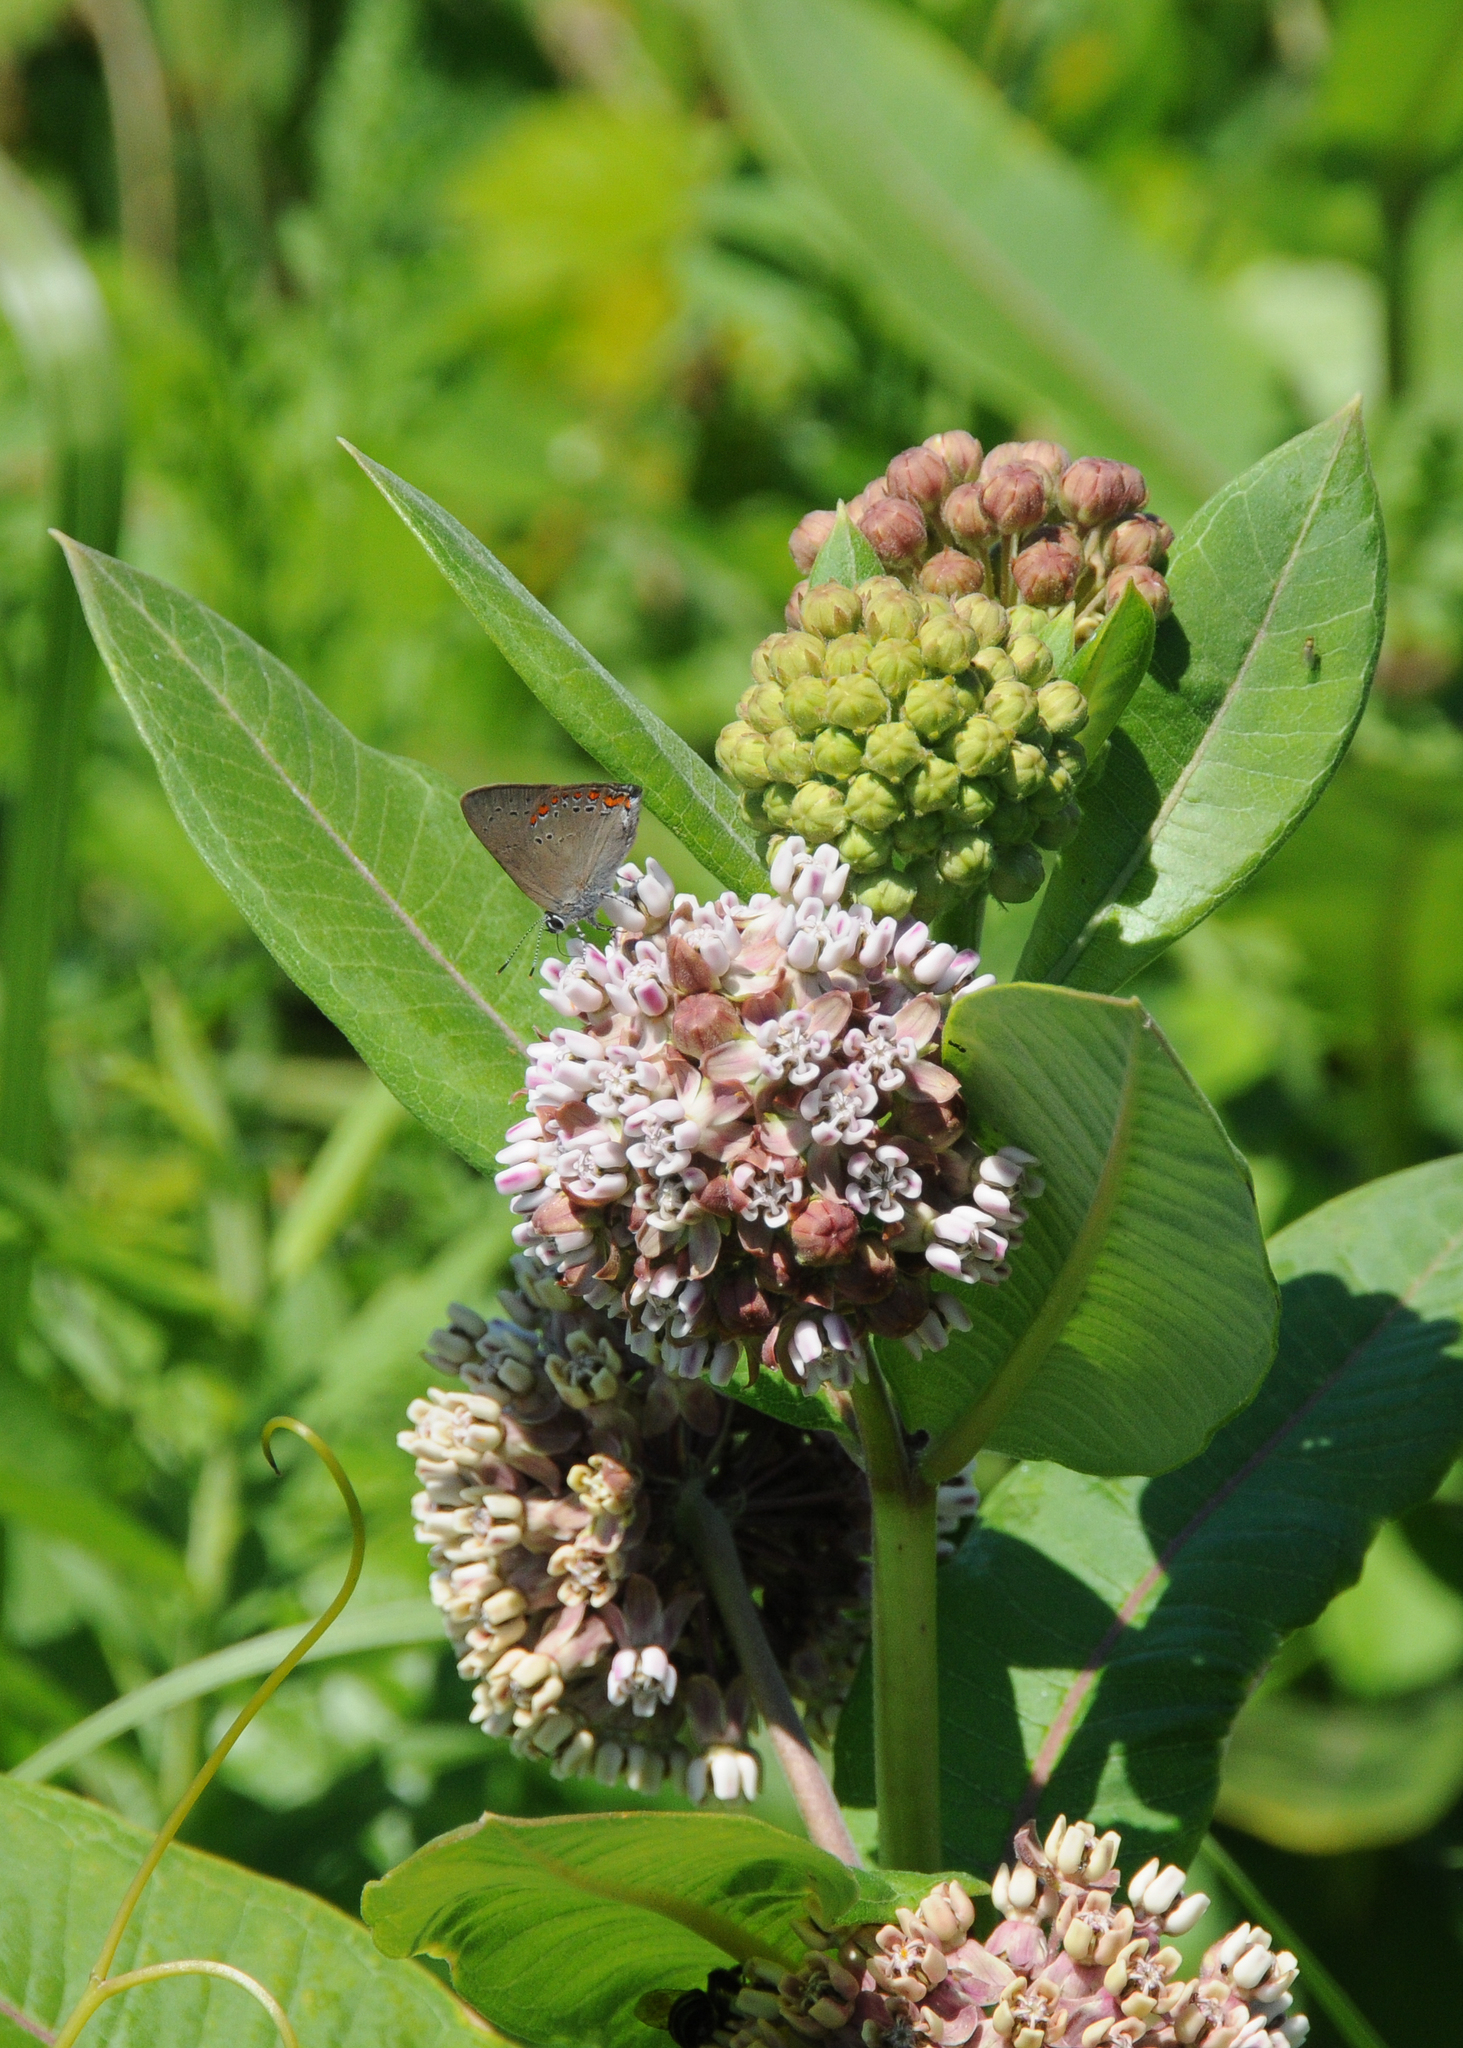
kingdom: Plantae
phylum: Tracheophyta
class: Magnoliopsida
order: Gentianales
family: Apocynaceae
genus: Asclepias
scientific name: Asclepias syriaca
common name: Common milkweed
